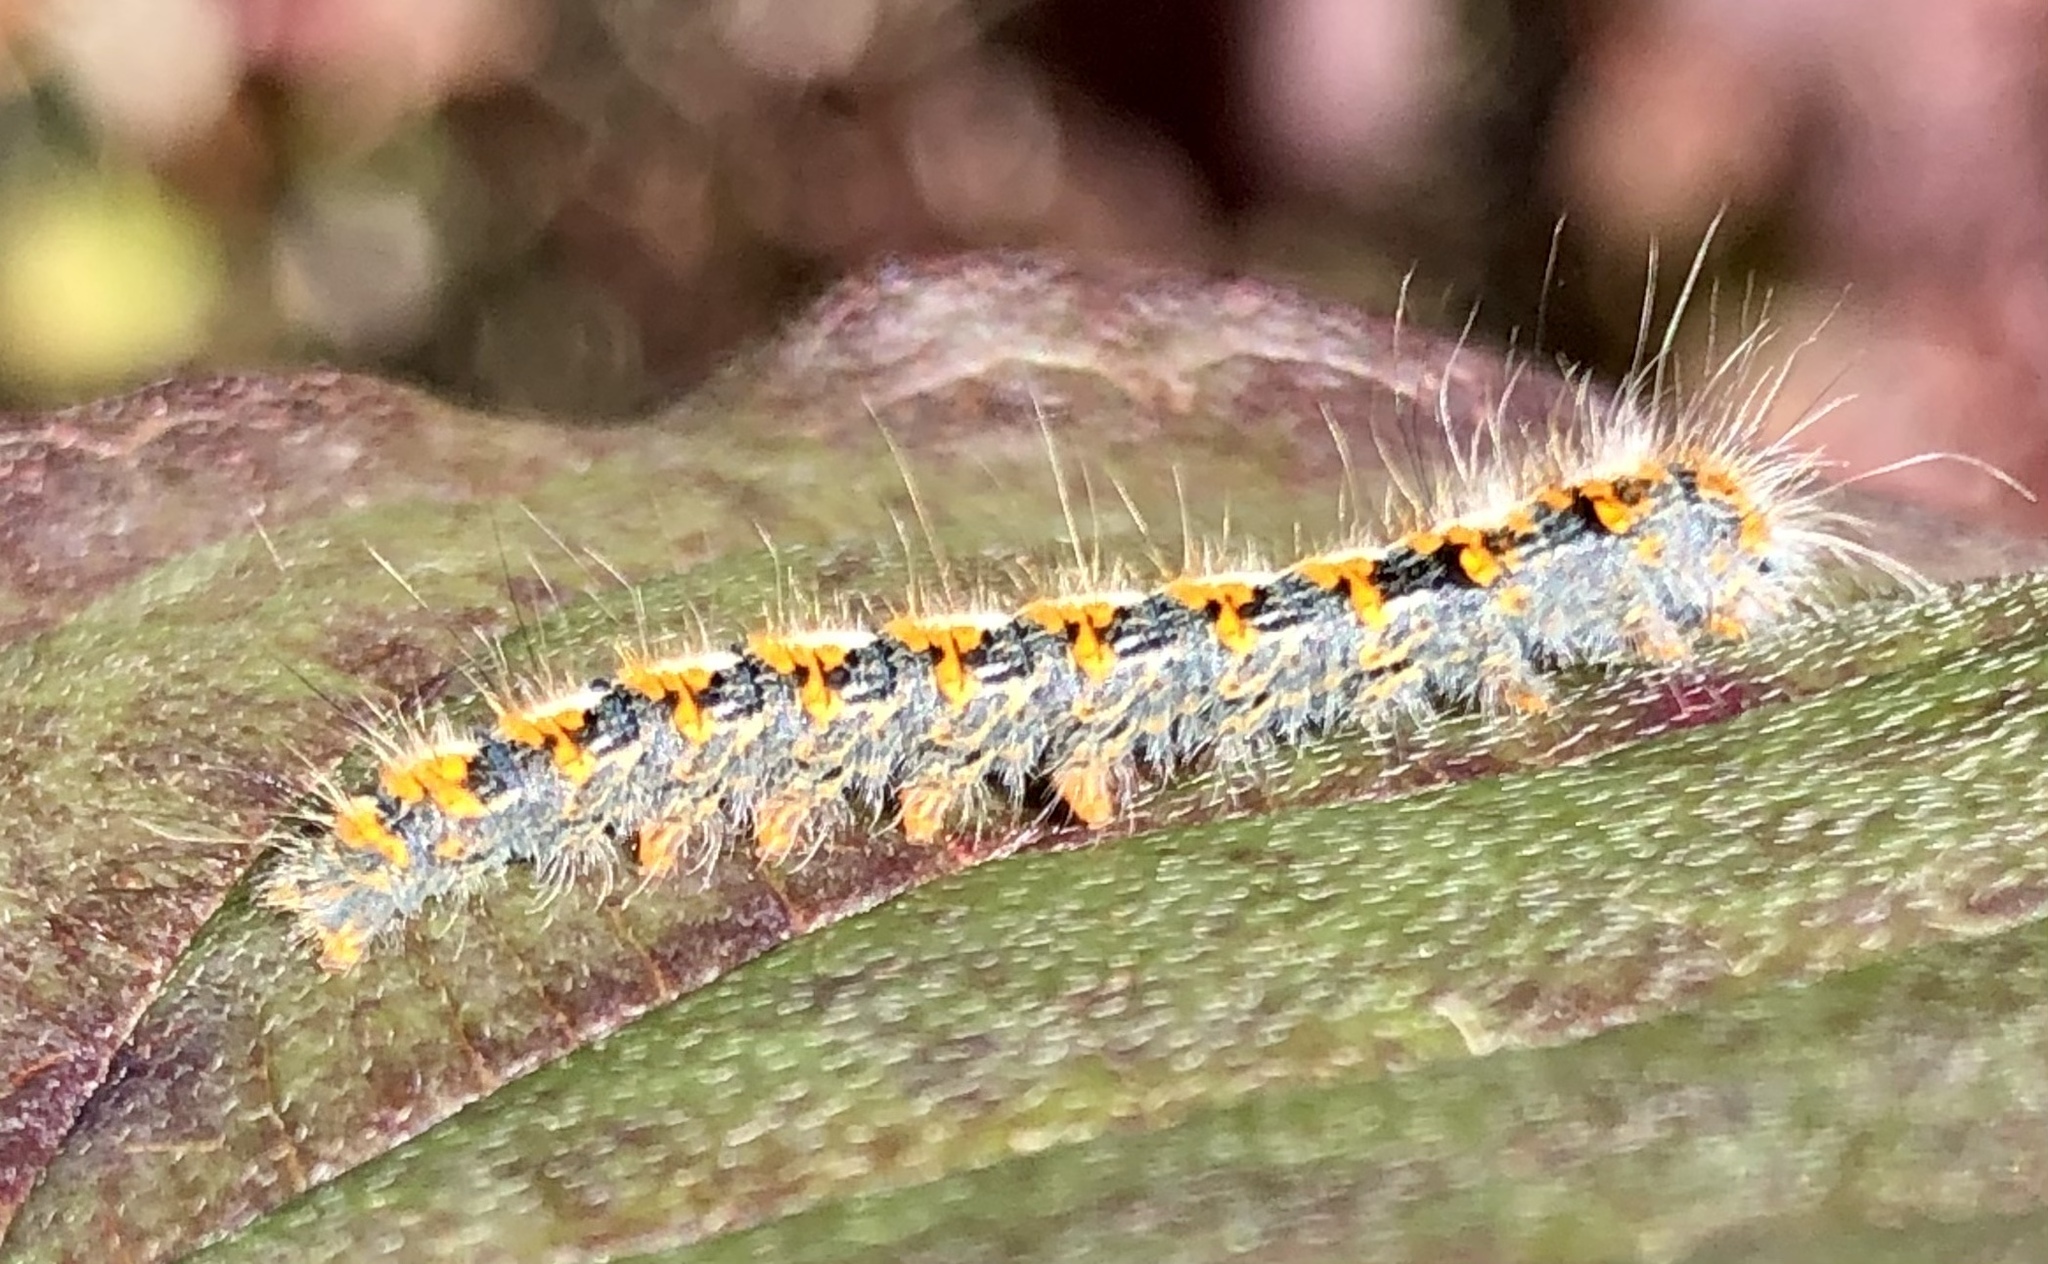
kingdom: Animalia
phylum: Arthropoda
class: Insecta
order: Lepidoptera
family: Lasiocampidae
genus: Lasiocampa
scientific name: Lasiocampa quercus
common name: Oak eggar
